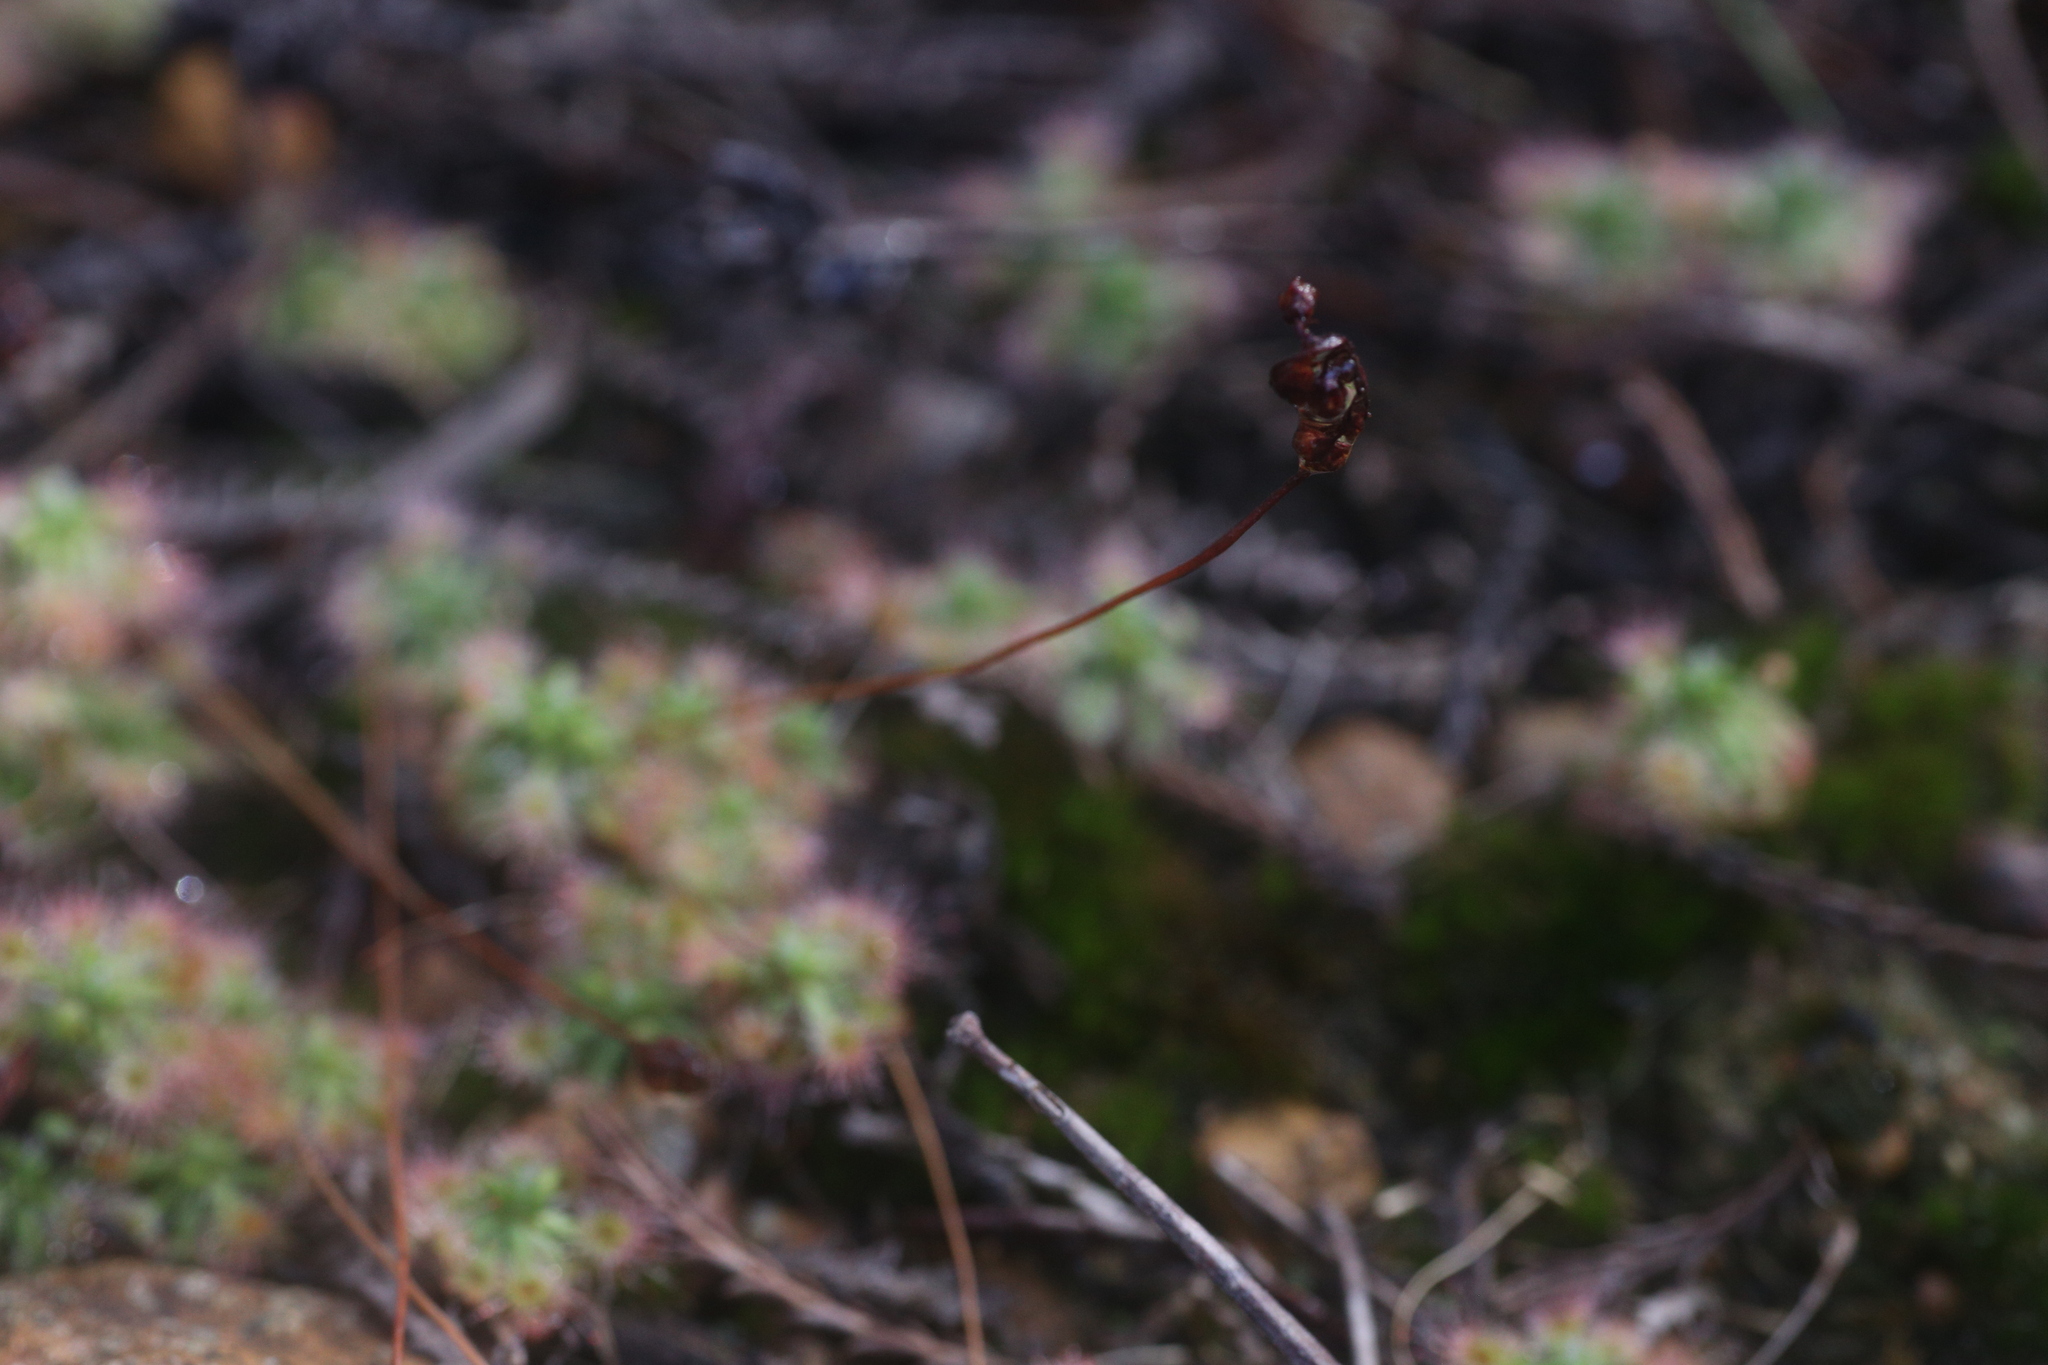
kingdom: Plantae
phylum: Tracheophyta
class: Magnoliopsida
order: Caryophyllales
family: Droseraceae
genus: Drosera
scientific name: Drosera spilos
